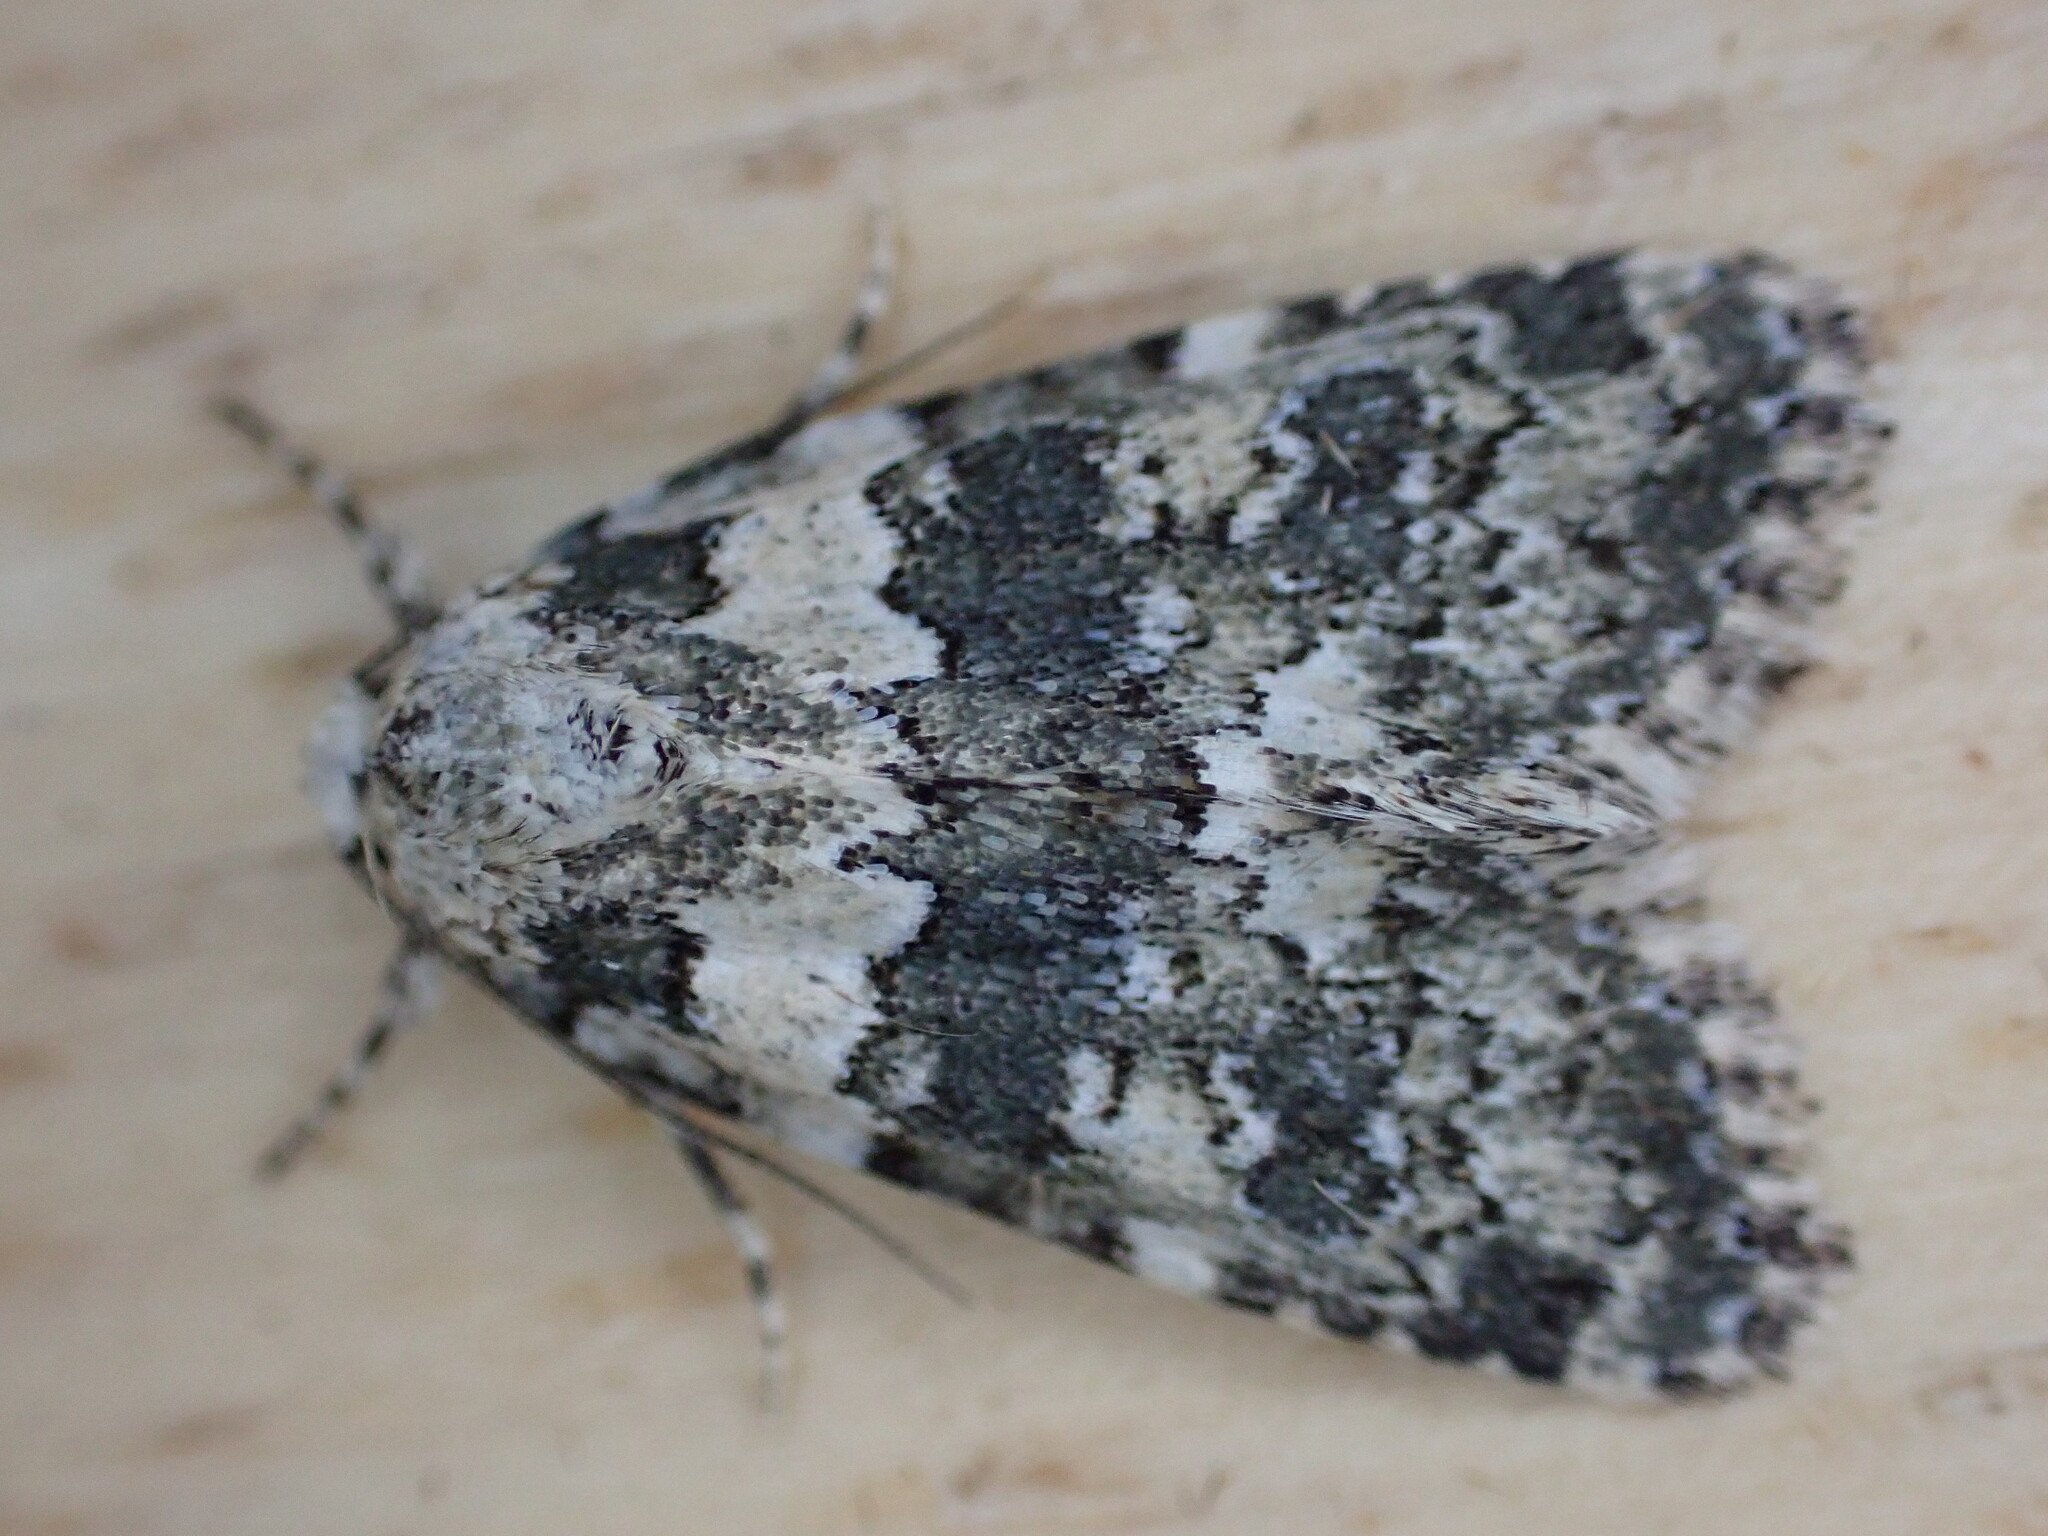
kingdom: Animalia
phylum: Arthropoda
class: Insecta
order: Lepidoptera
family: Noctuidae
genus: Bryophila
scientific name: Bryophila domestica
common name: Marbled beauty
